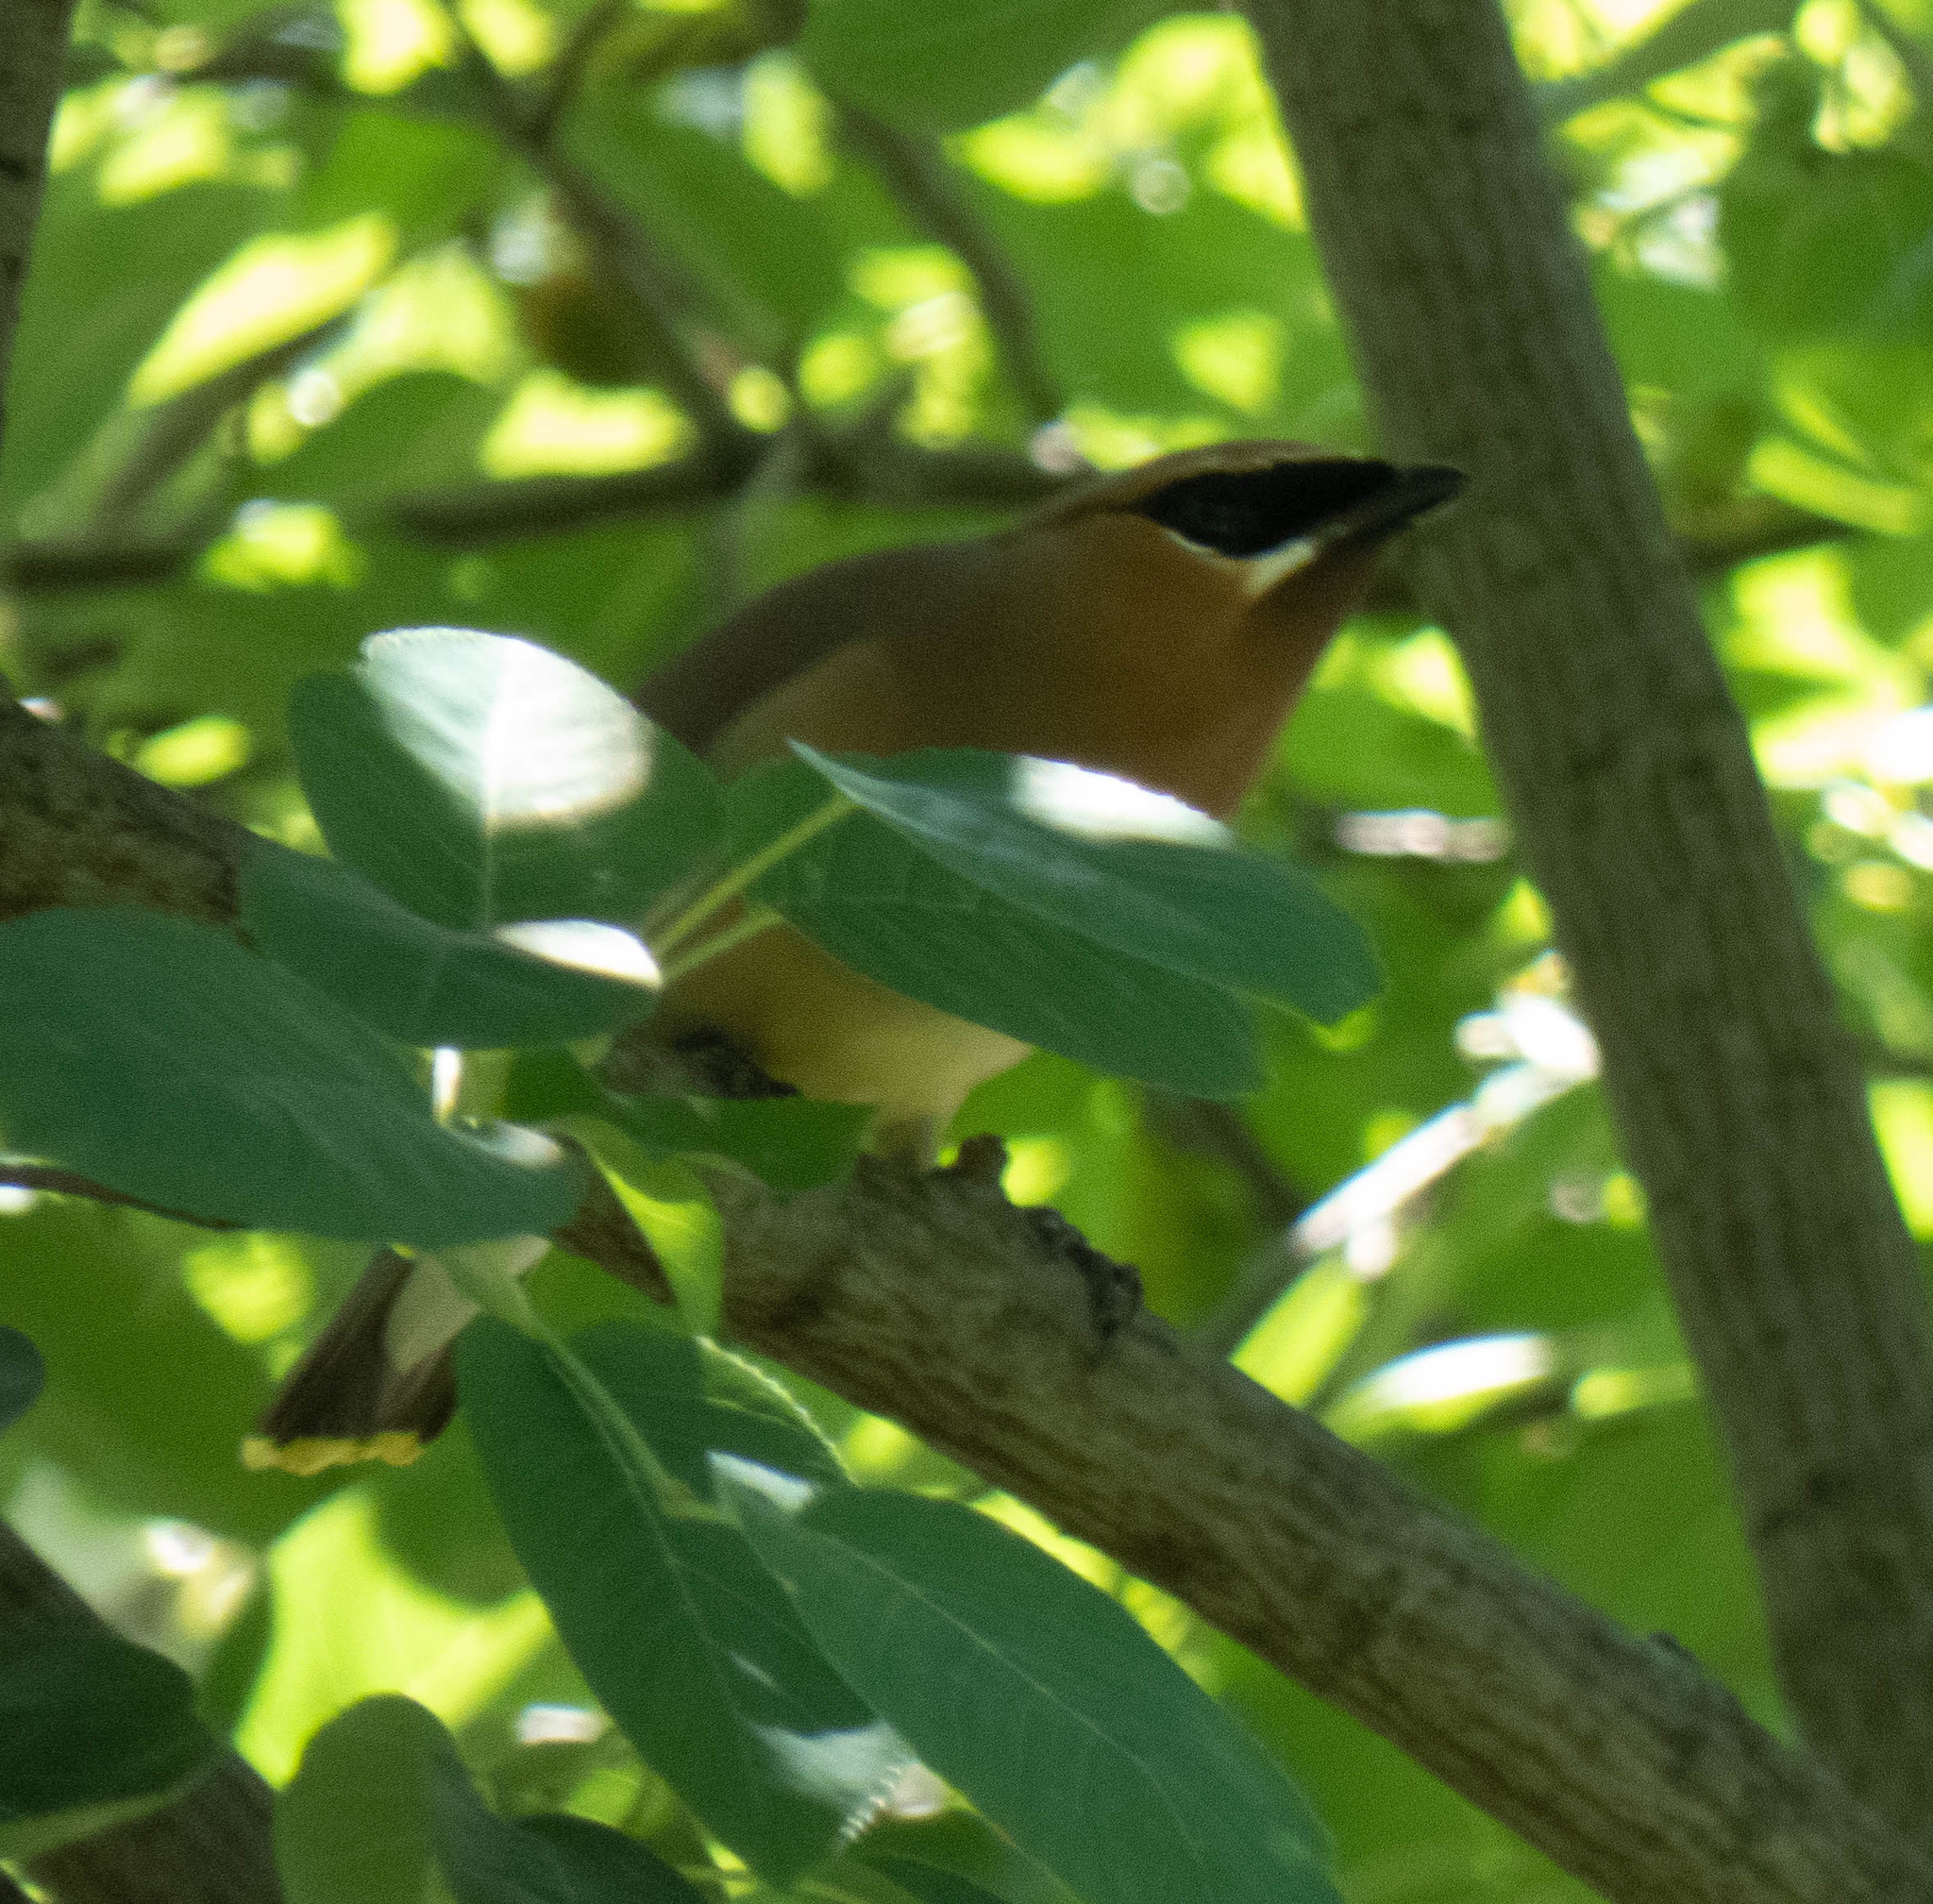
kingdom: Animalia
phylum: Chordata
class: Aves
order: Passeriformes
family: Bombycillidae
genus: Bombycilla
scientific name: Bombycilla cedrorum
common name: Cedar waxwing
